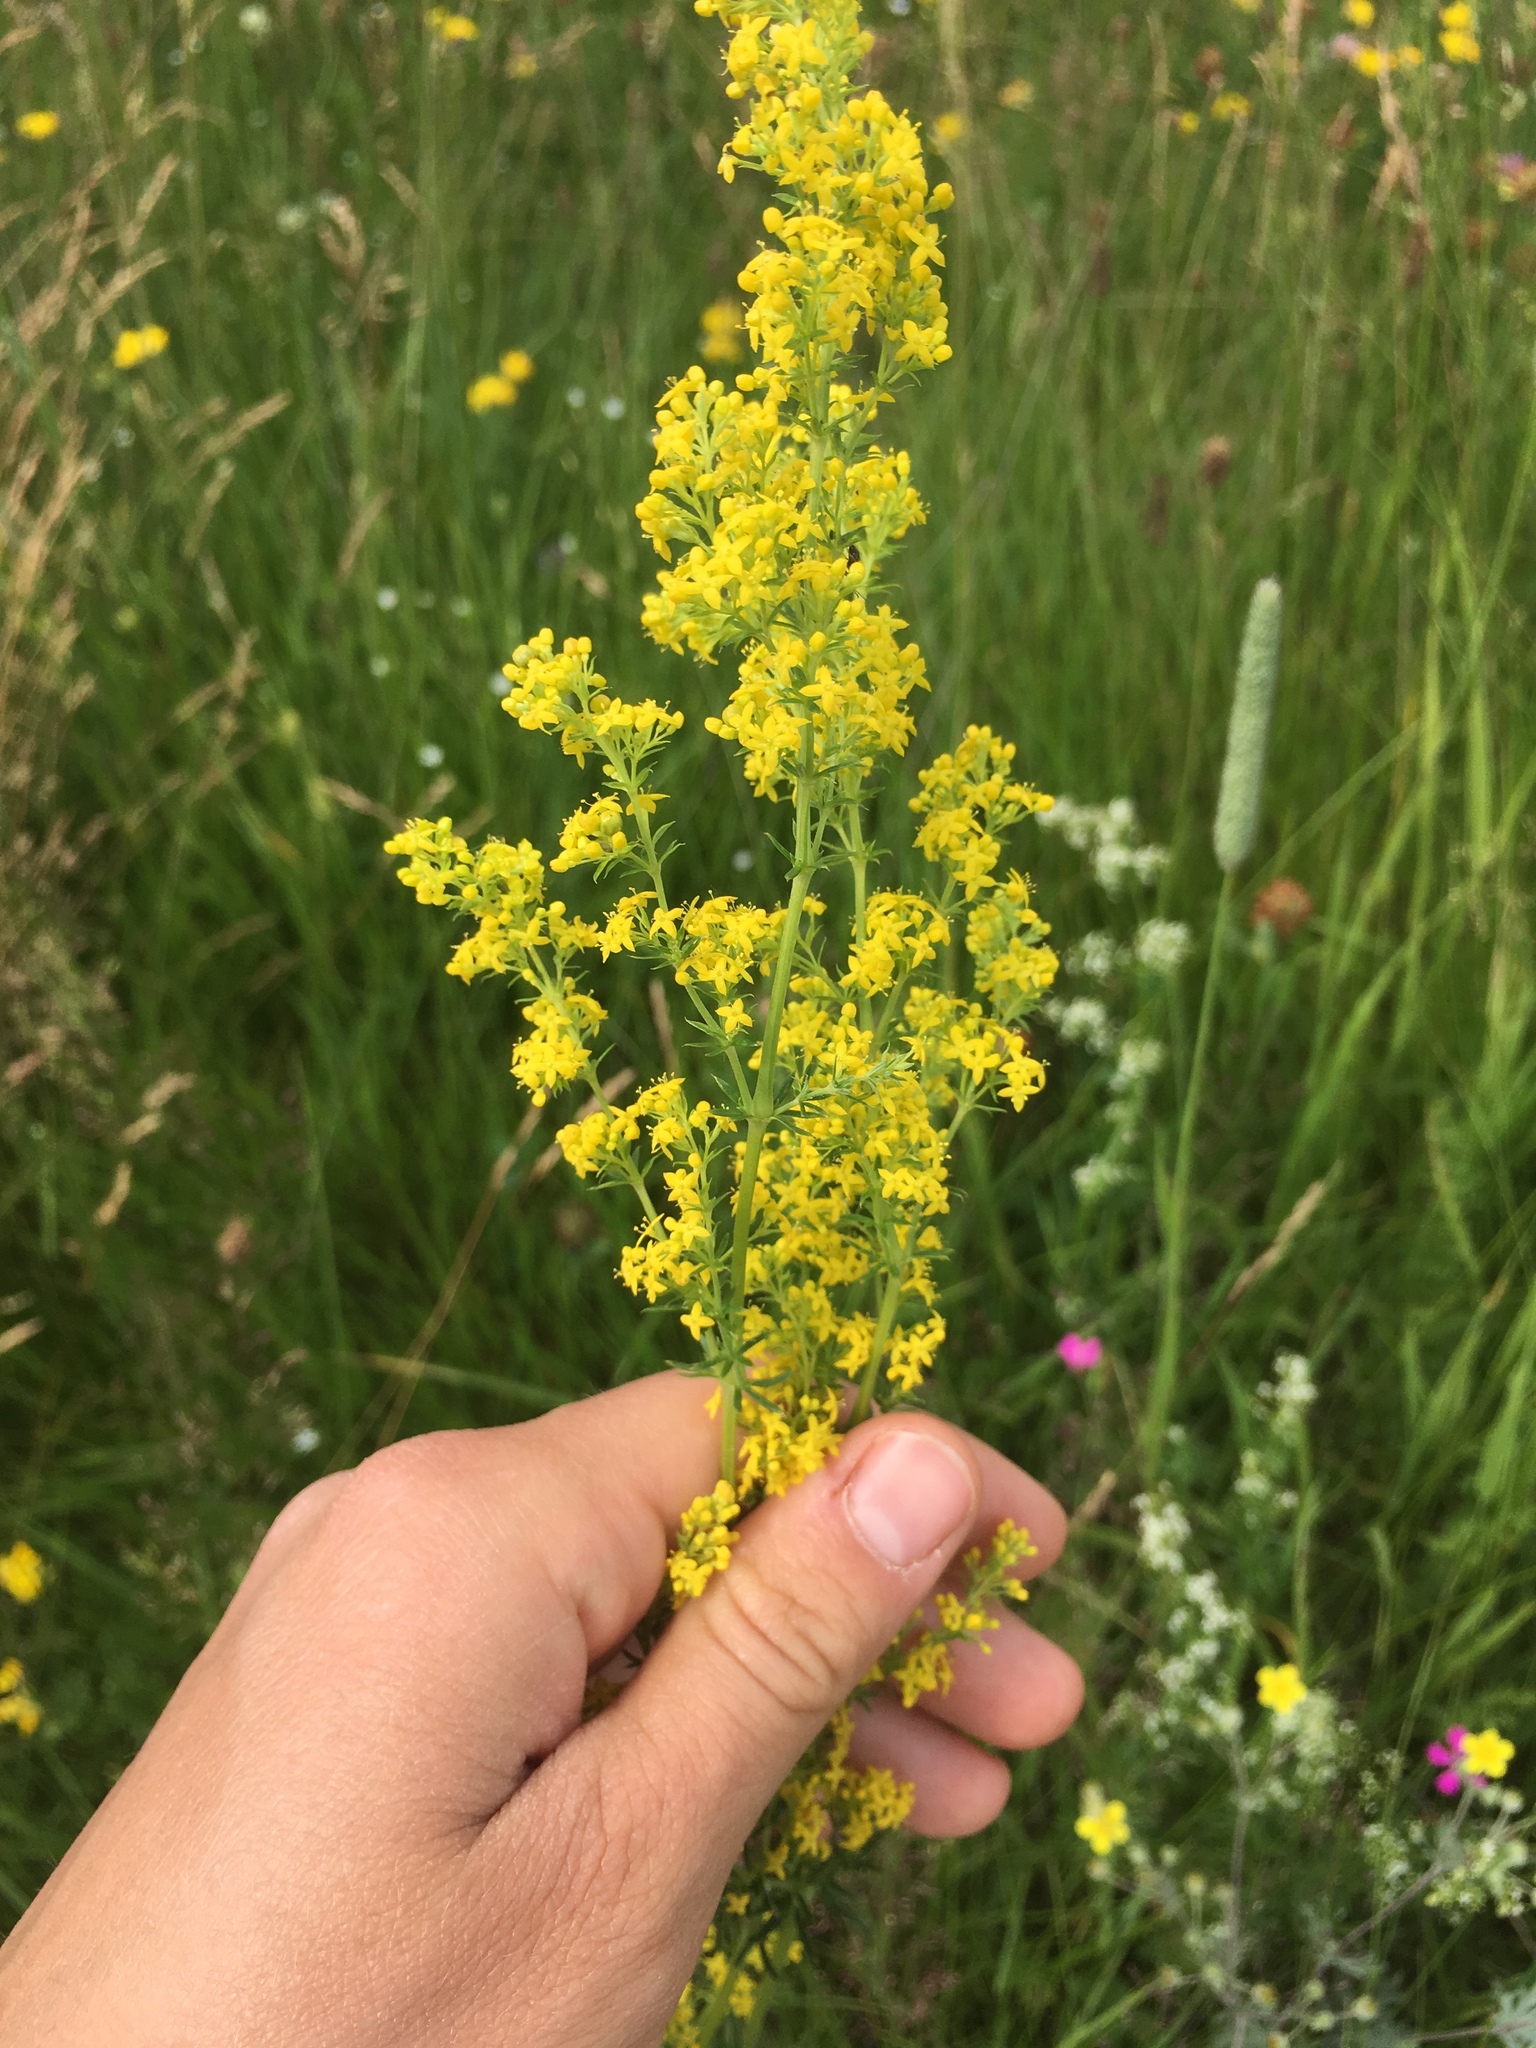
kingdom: Plantae
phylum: Tracheophyta
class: Magnoliopsida
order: Gentianales
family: Rubiaceae
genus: Galium
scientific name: Galium verum
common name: Lady's bedstraw
